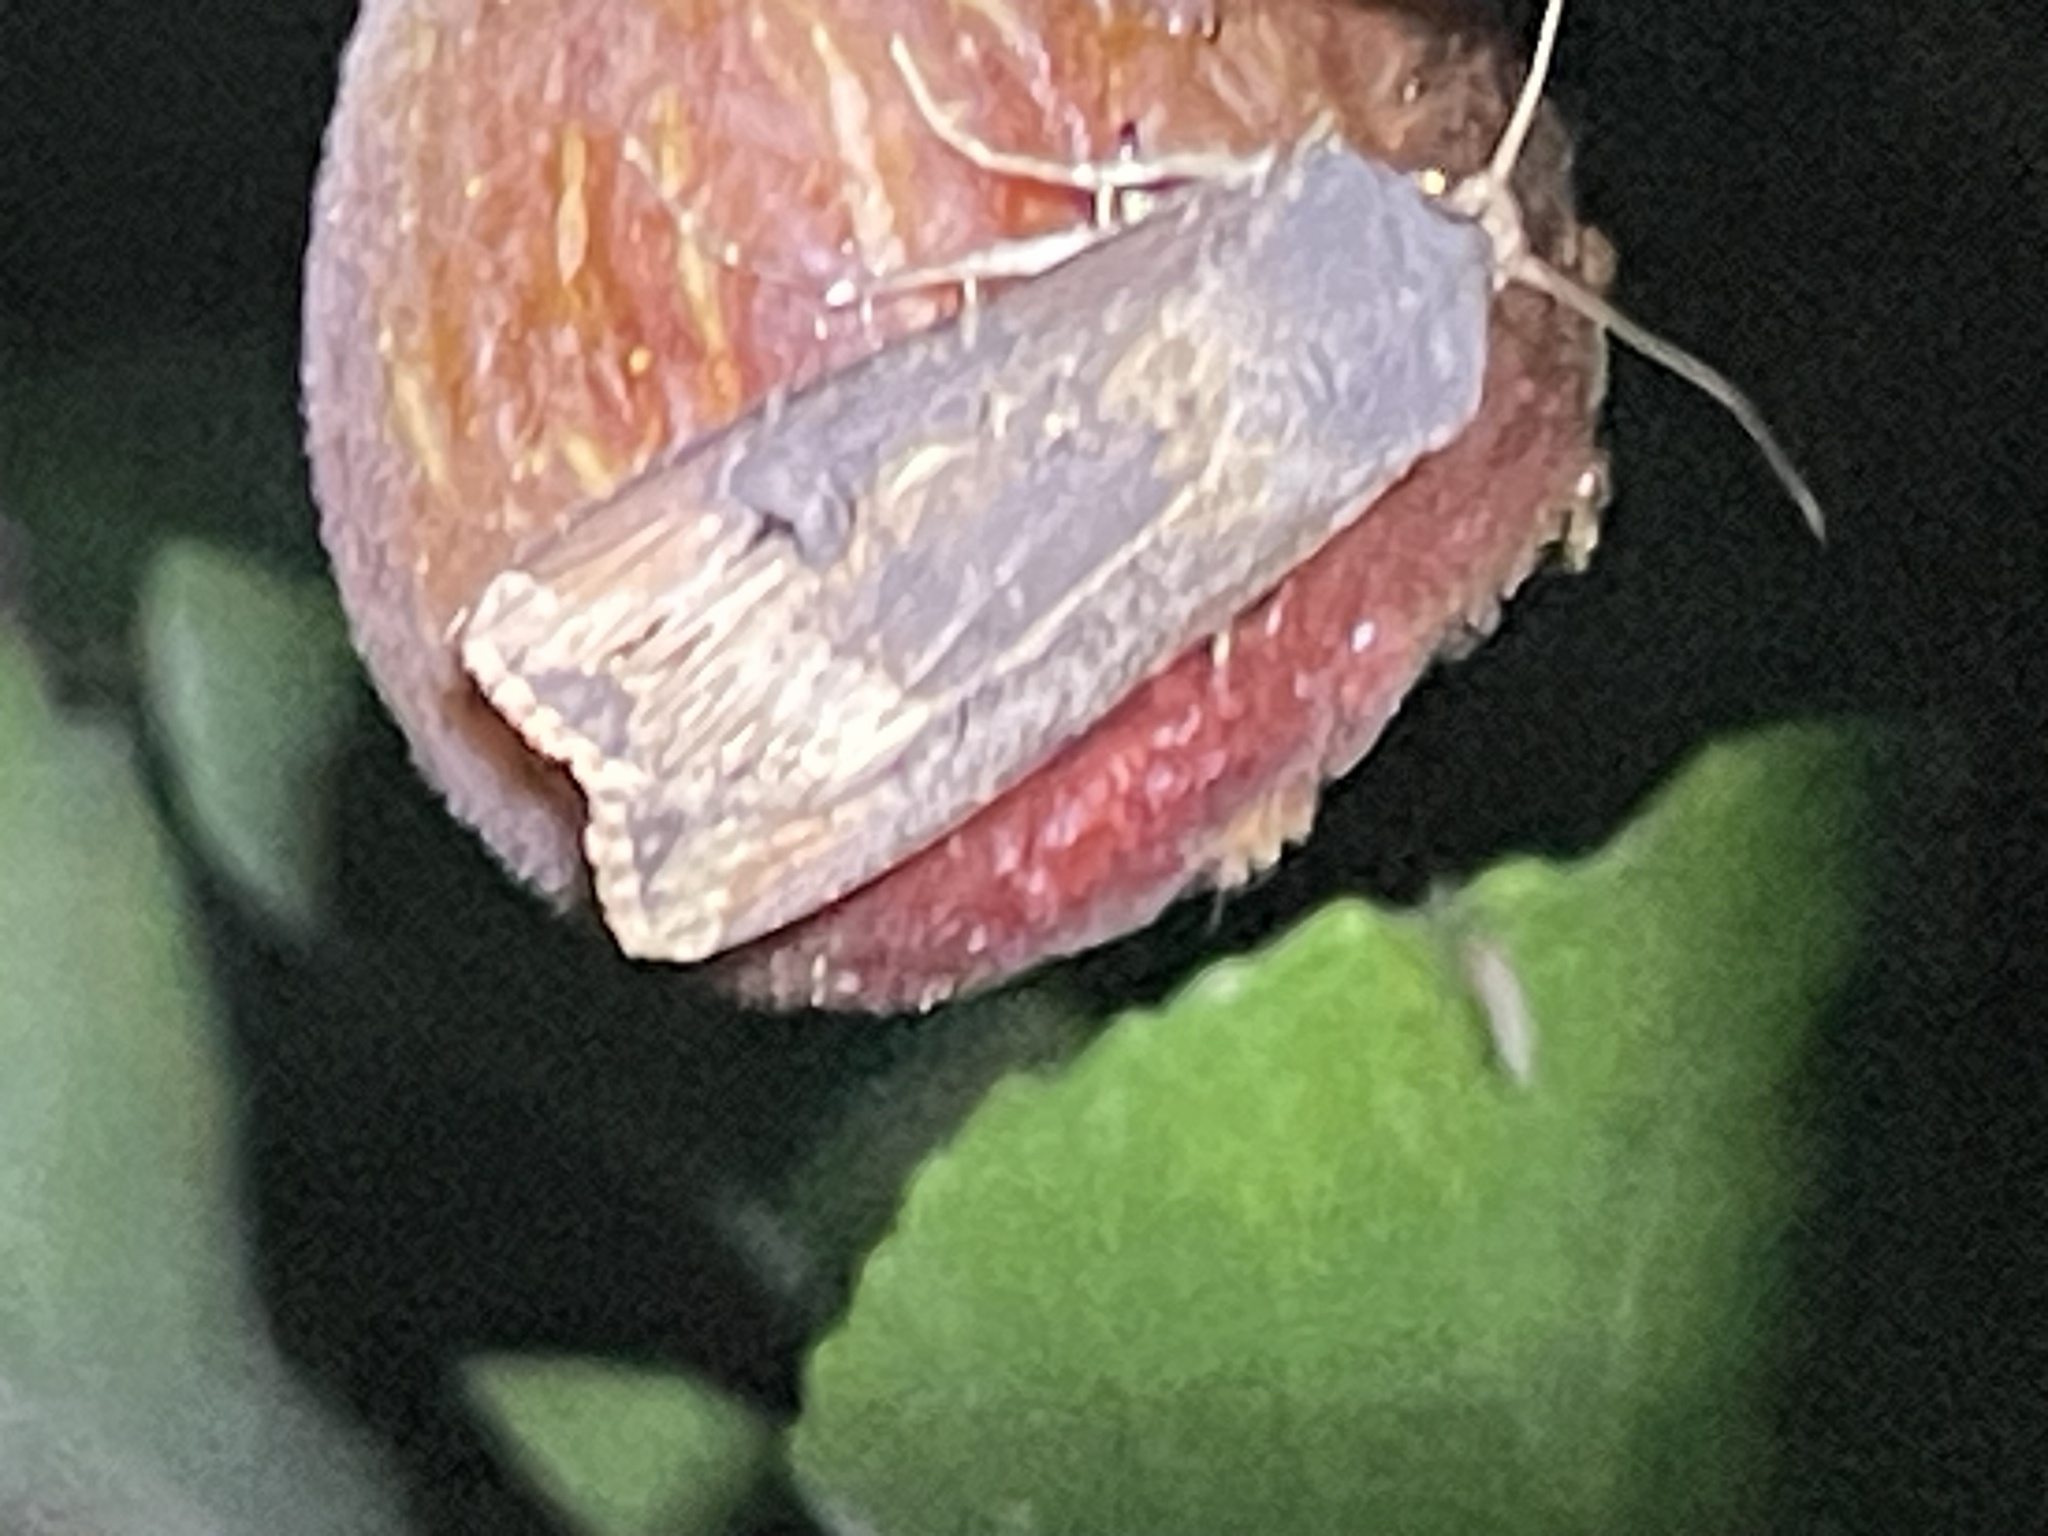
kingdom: Animalia
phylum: Arthropoda
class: Insecta
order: Lepidoptera
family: Noctuidae
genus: Agrotis
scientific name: Agrotis ipsilon
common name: Dark sword-grass
